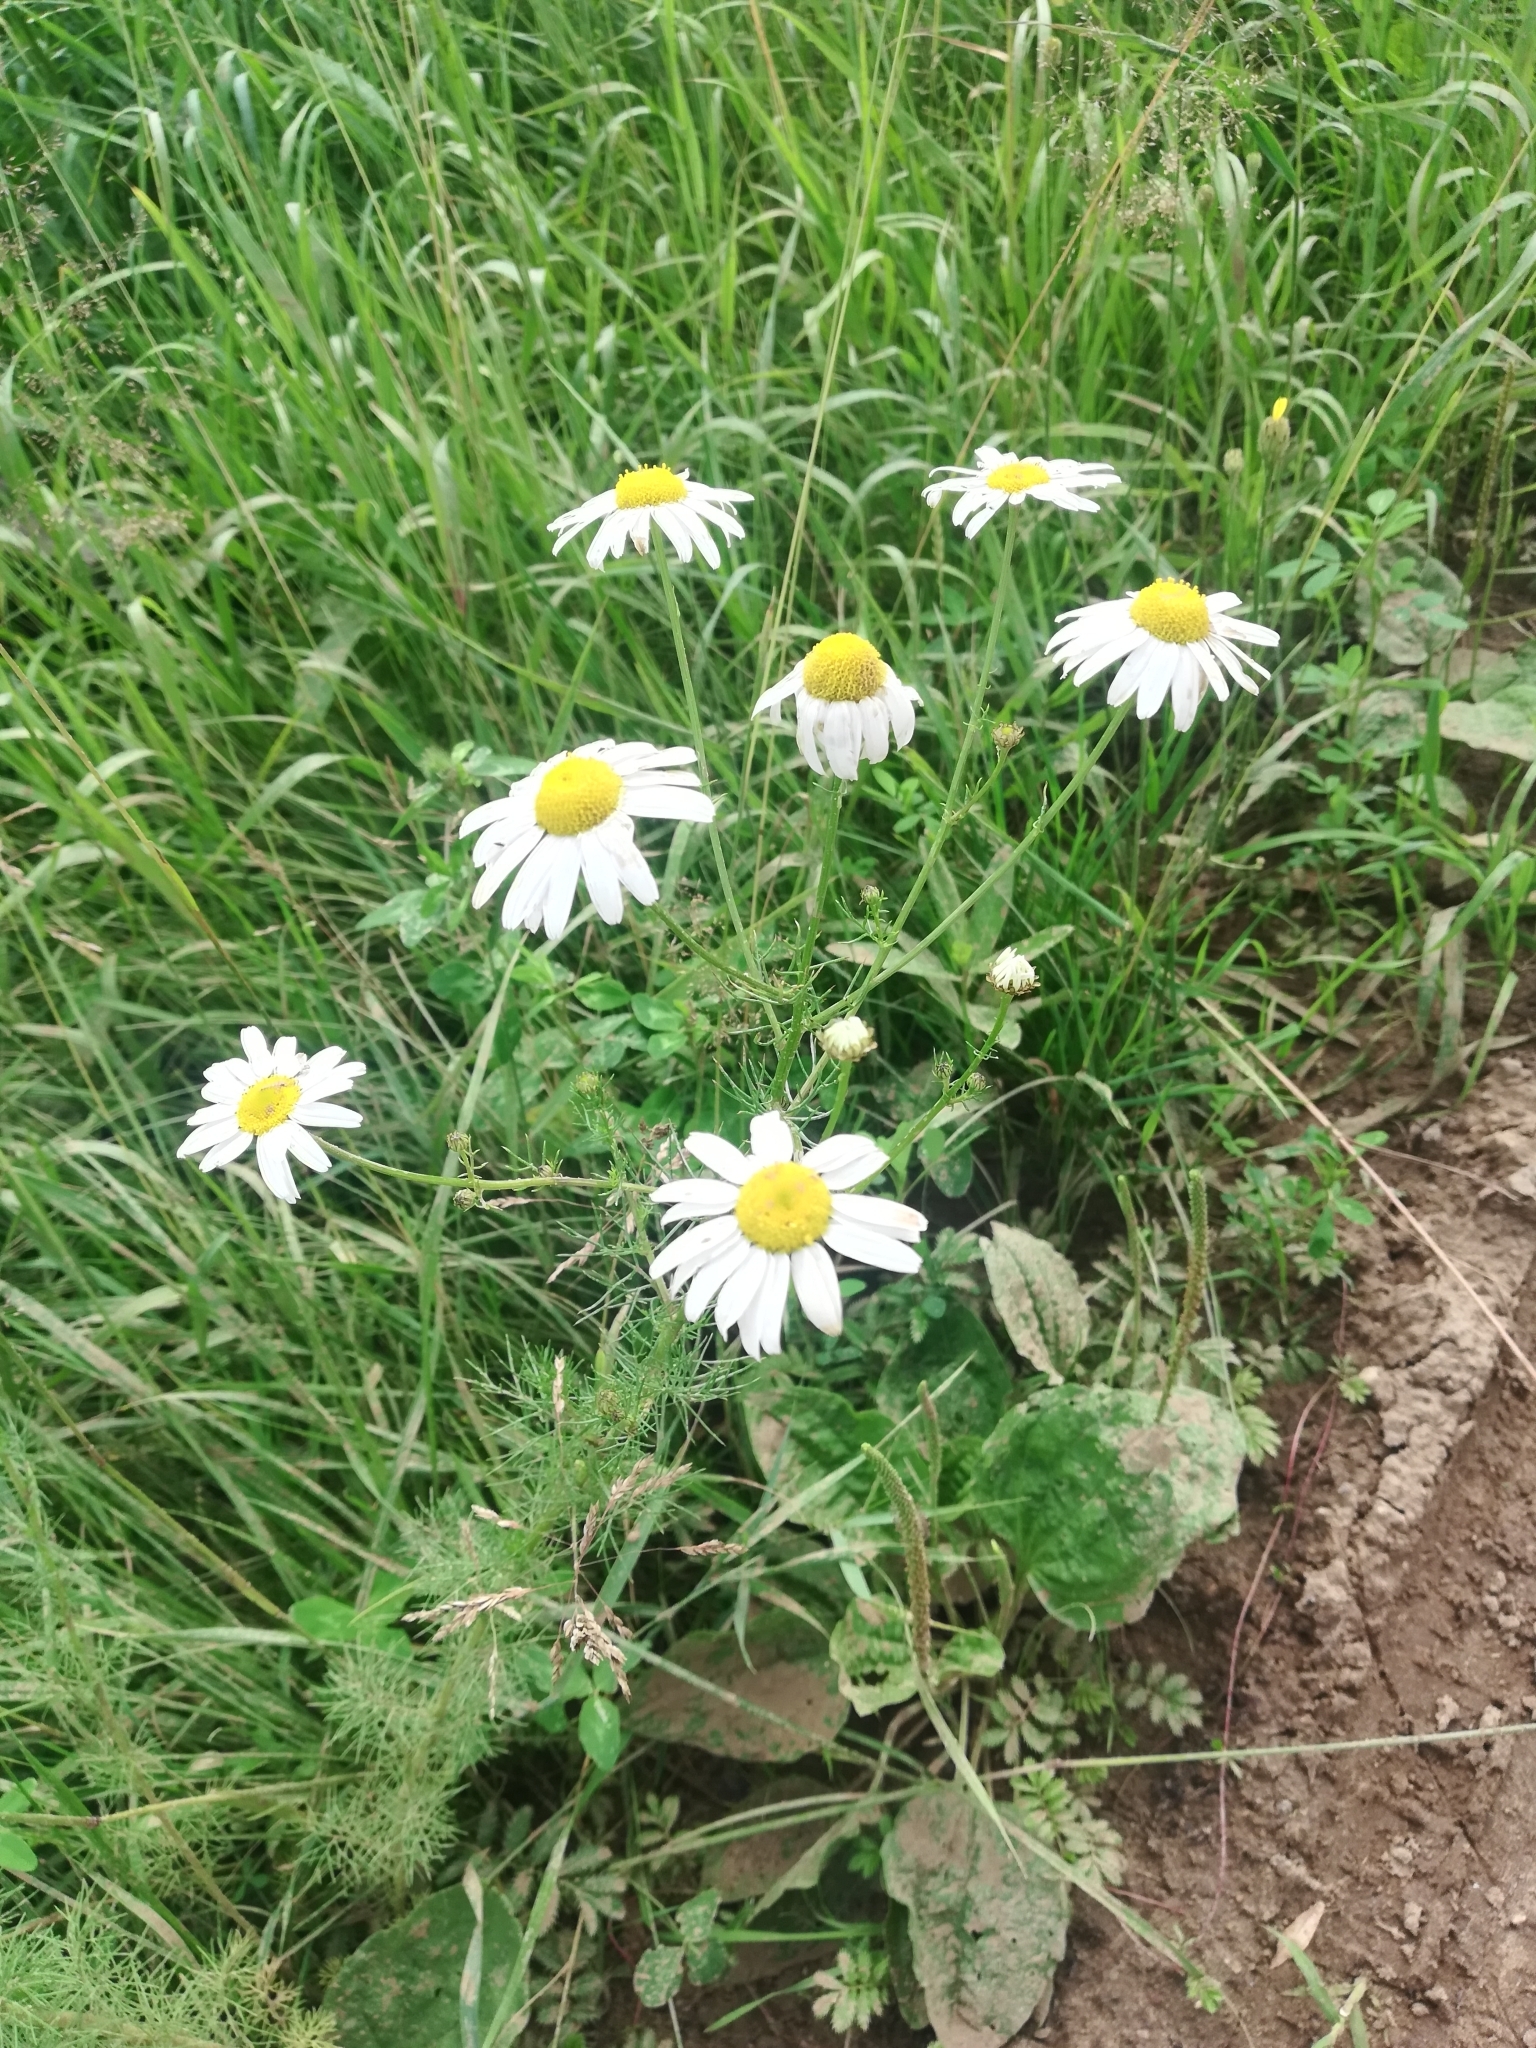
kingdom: Plantae
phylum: Tracheophyta
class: Magnoliopsida
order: Asterales
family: Asteraceae
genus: Tripleurospermum
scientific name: Tripleurospermum inodorum
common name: Scentless mayweed
